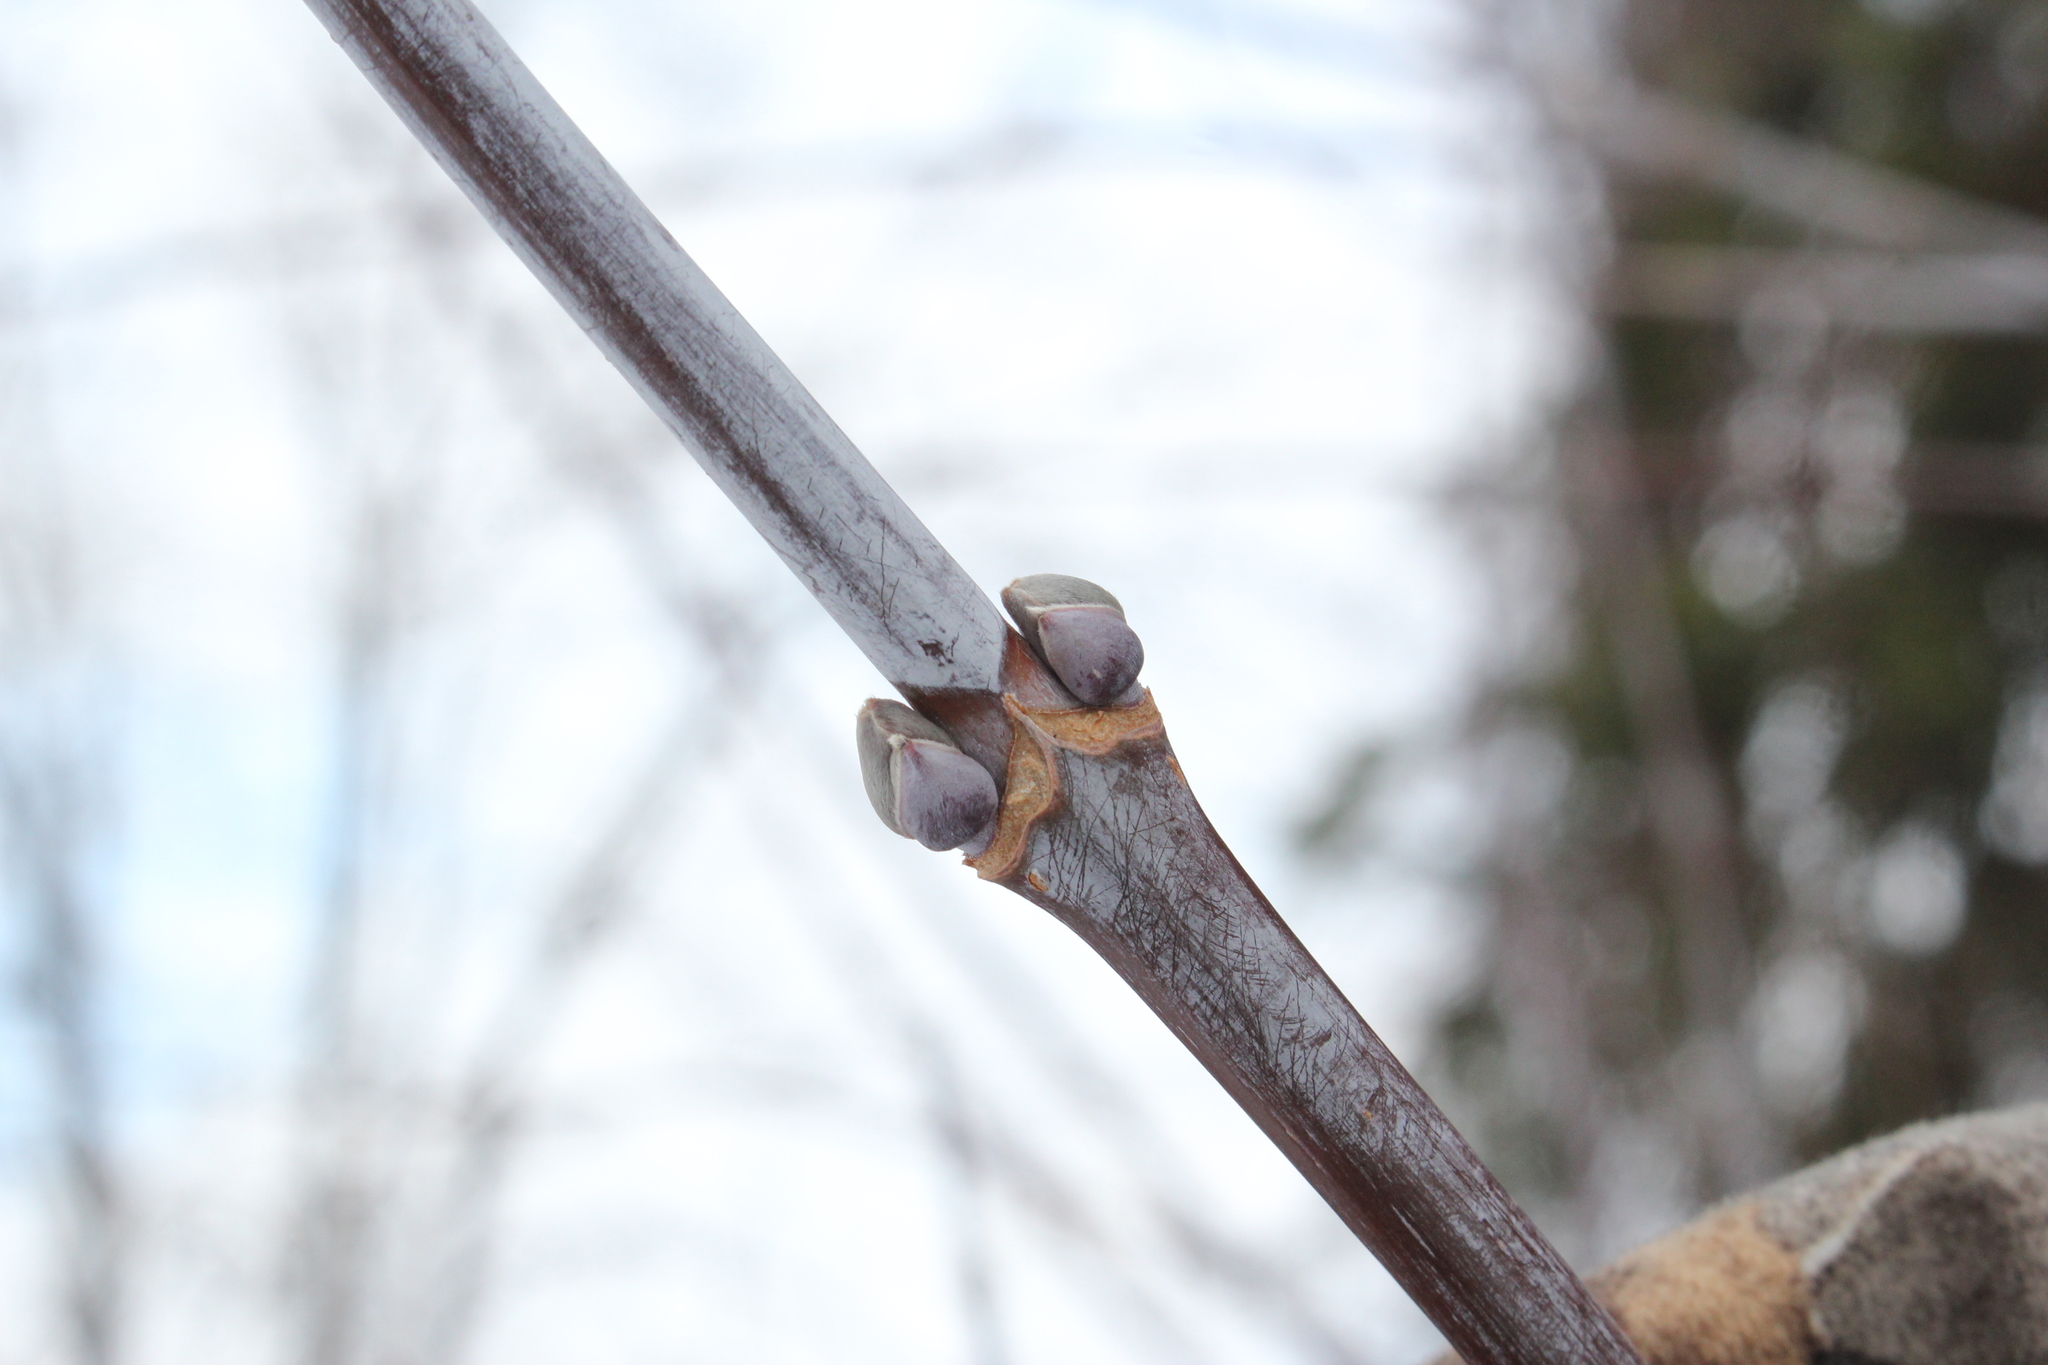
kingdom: Plantae
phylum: Tracheophyta
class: Magnoliopsida
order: Sapindales
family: Sapindaceae
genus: Acer
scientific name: Acer negundo
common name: Ashleaf maple
